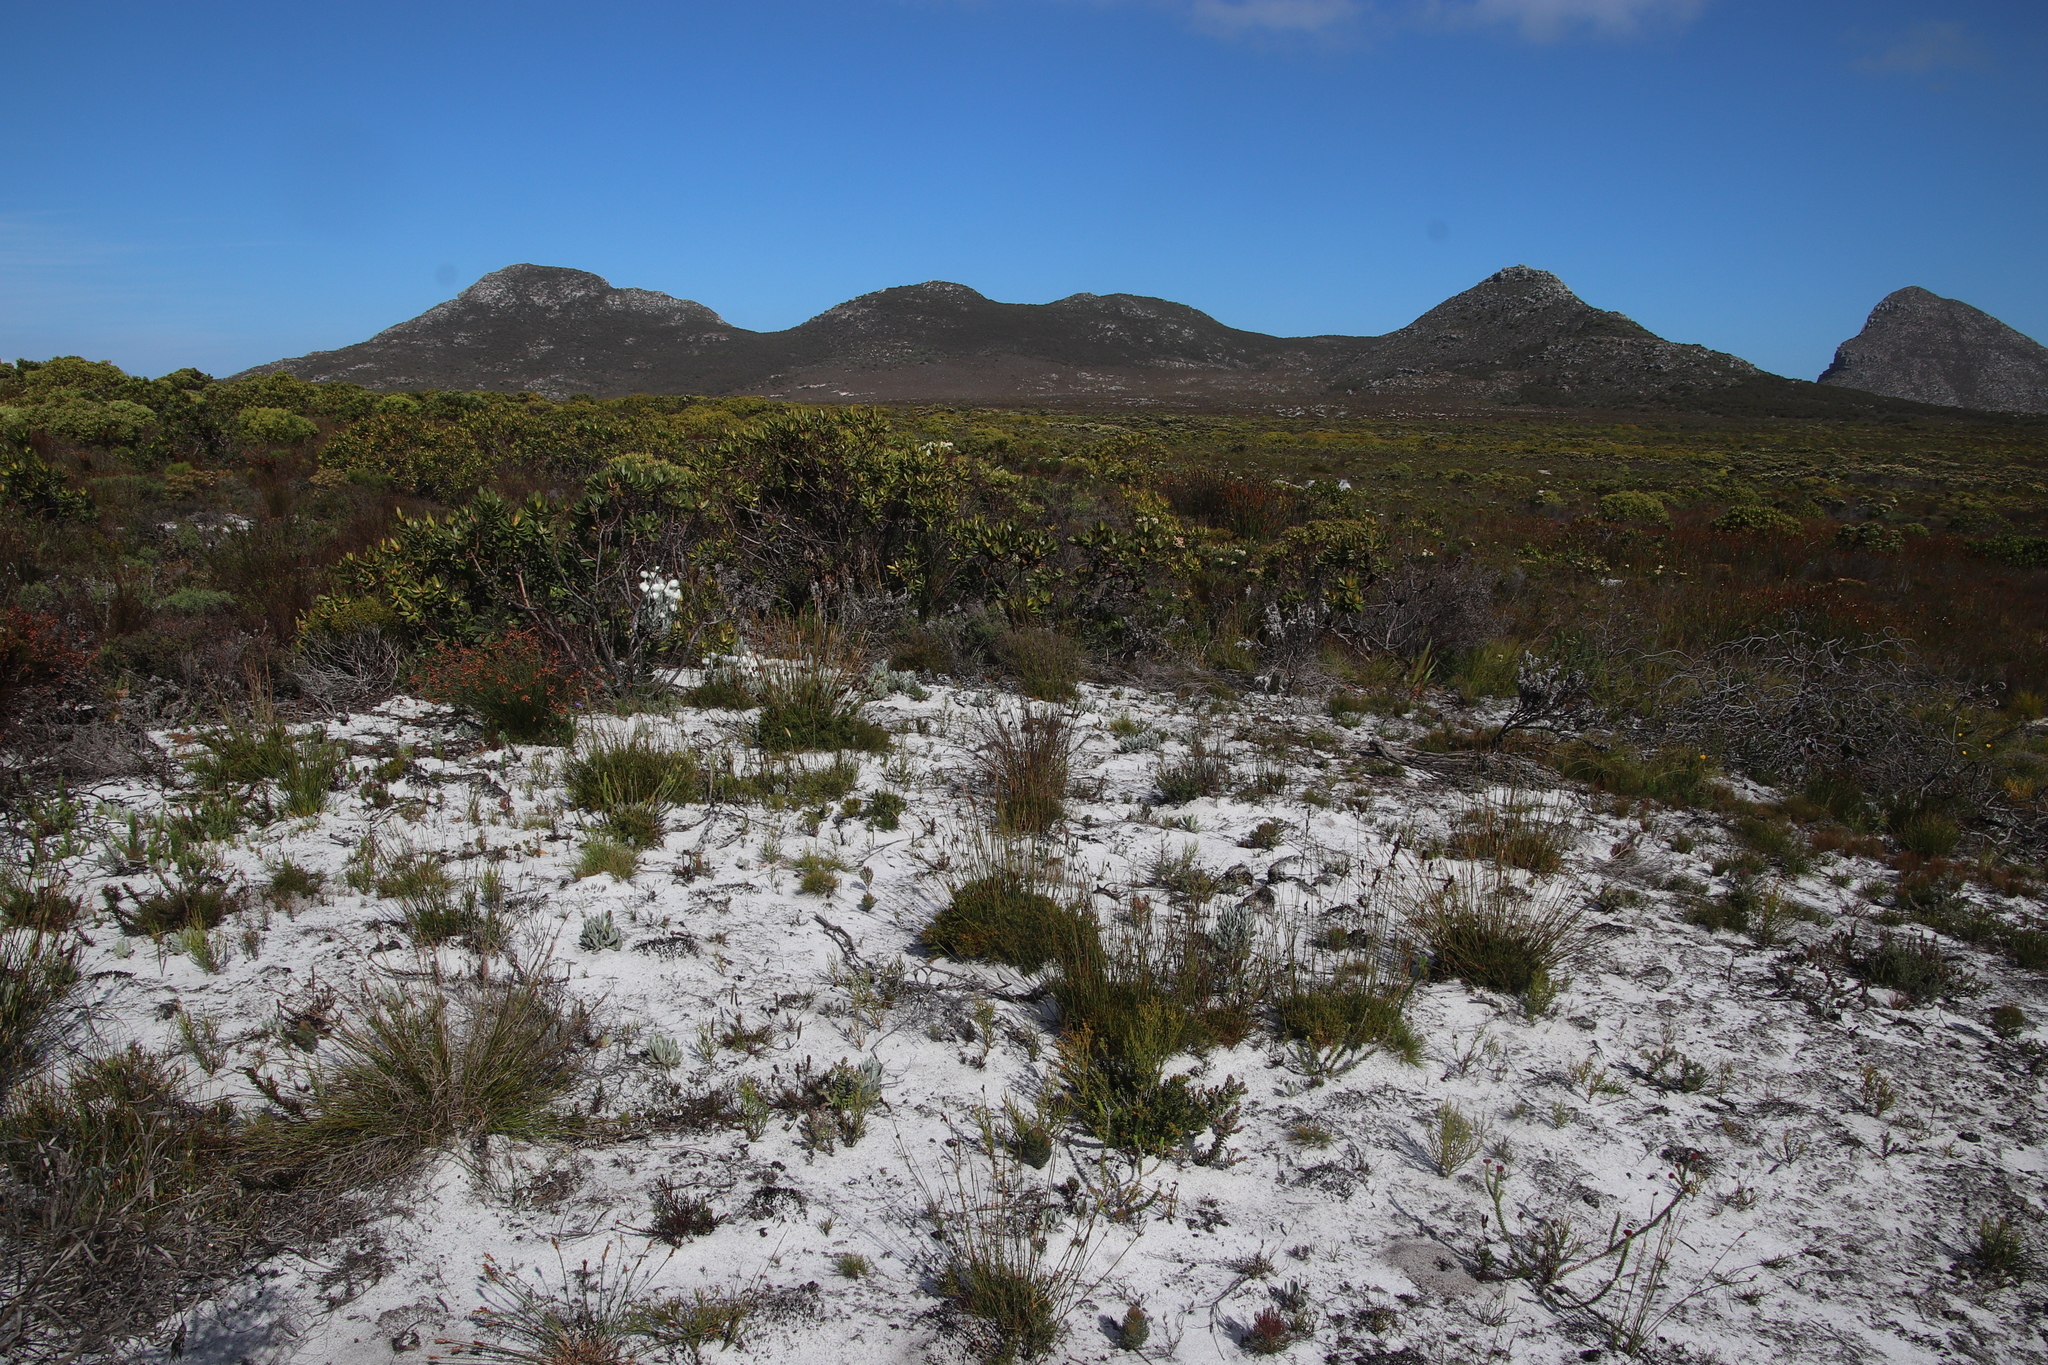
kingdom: Plantae
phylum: Tracheophyta
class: Magnoliopsida
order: Proteales
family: Proteaceae
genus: Leucadendron
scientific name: Leucadendron laureolum
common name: Golden sunshinebush
